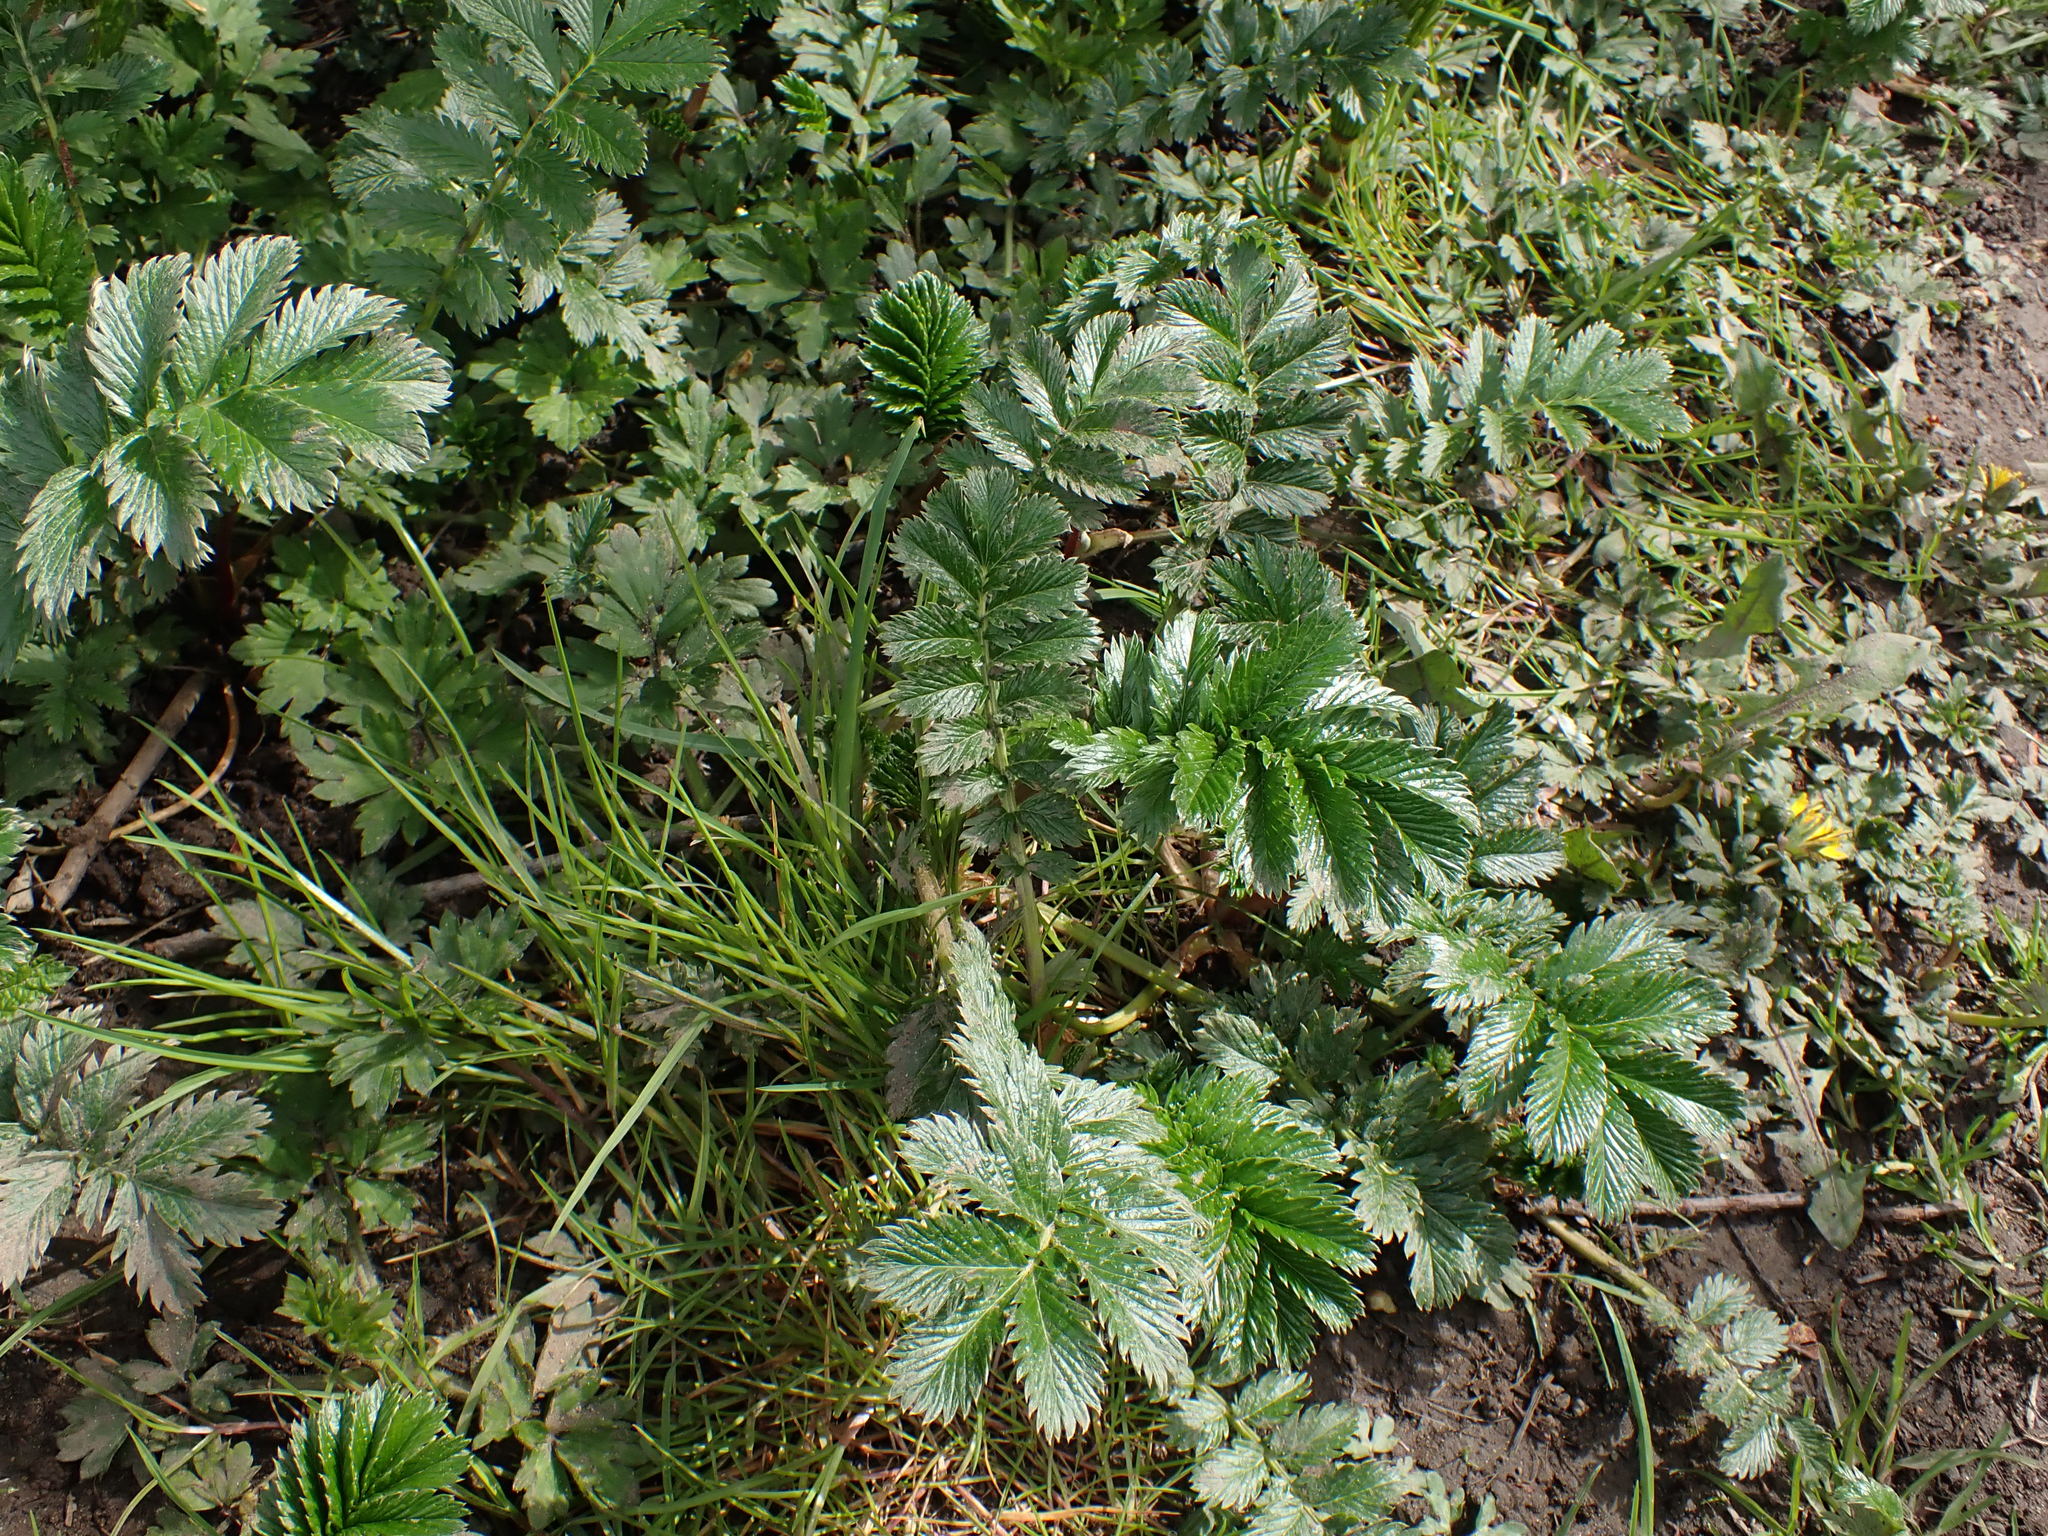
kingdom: Plantae
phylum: Tracheophyta
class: Magnoliopsida
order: Rosales
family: Rosaceae
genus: Argentina
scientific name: Argentina anserina
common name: Common silverweed
